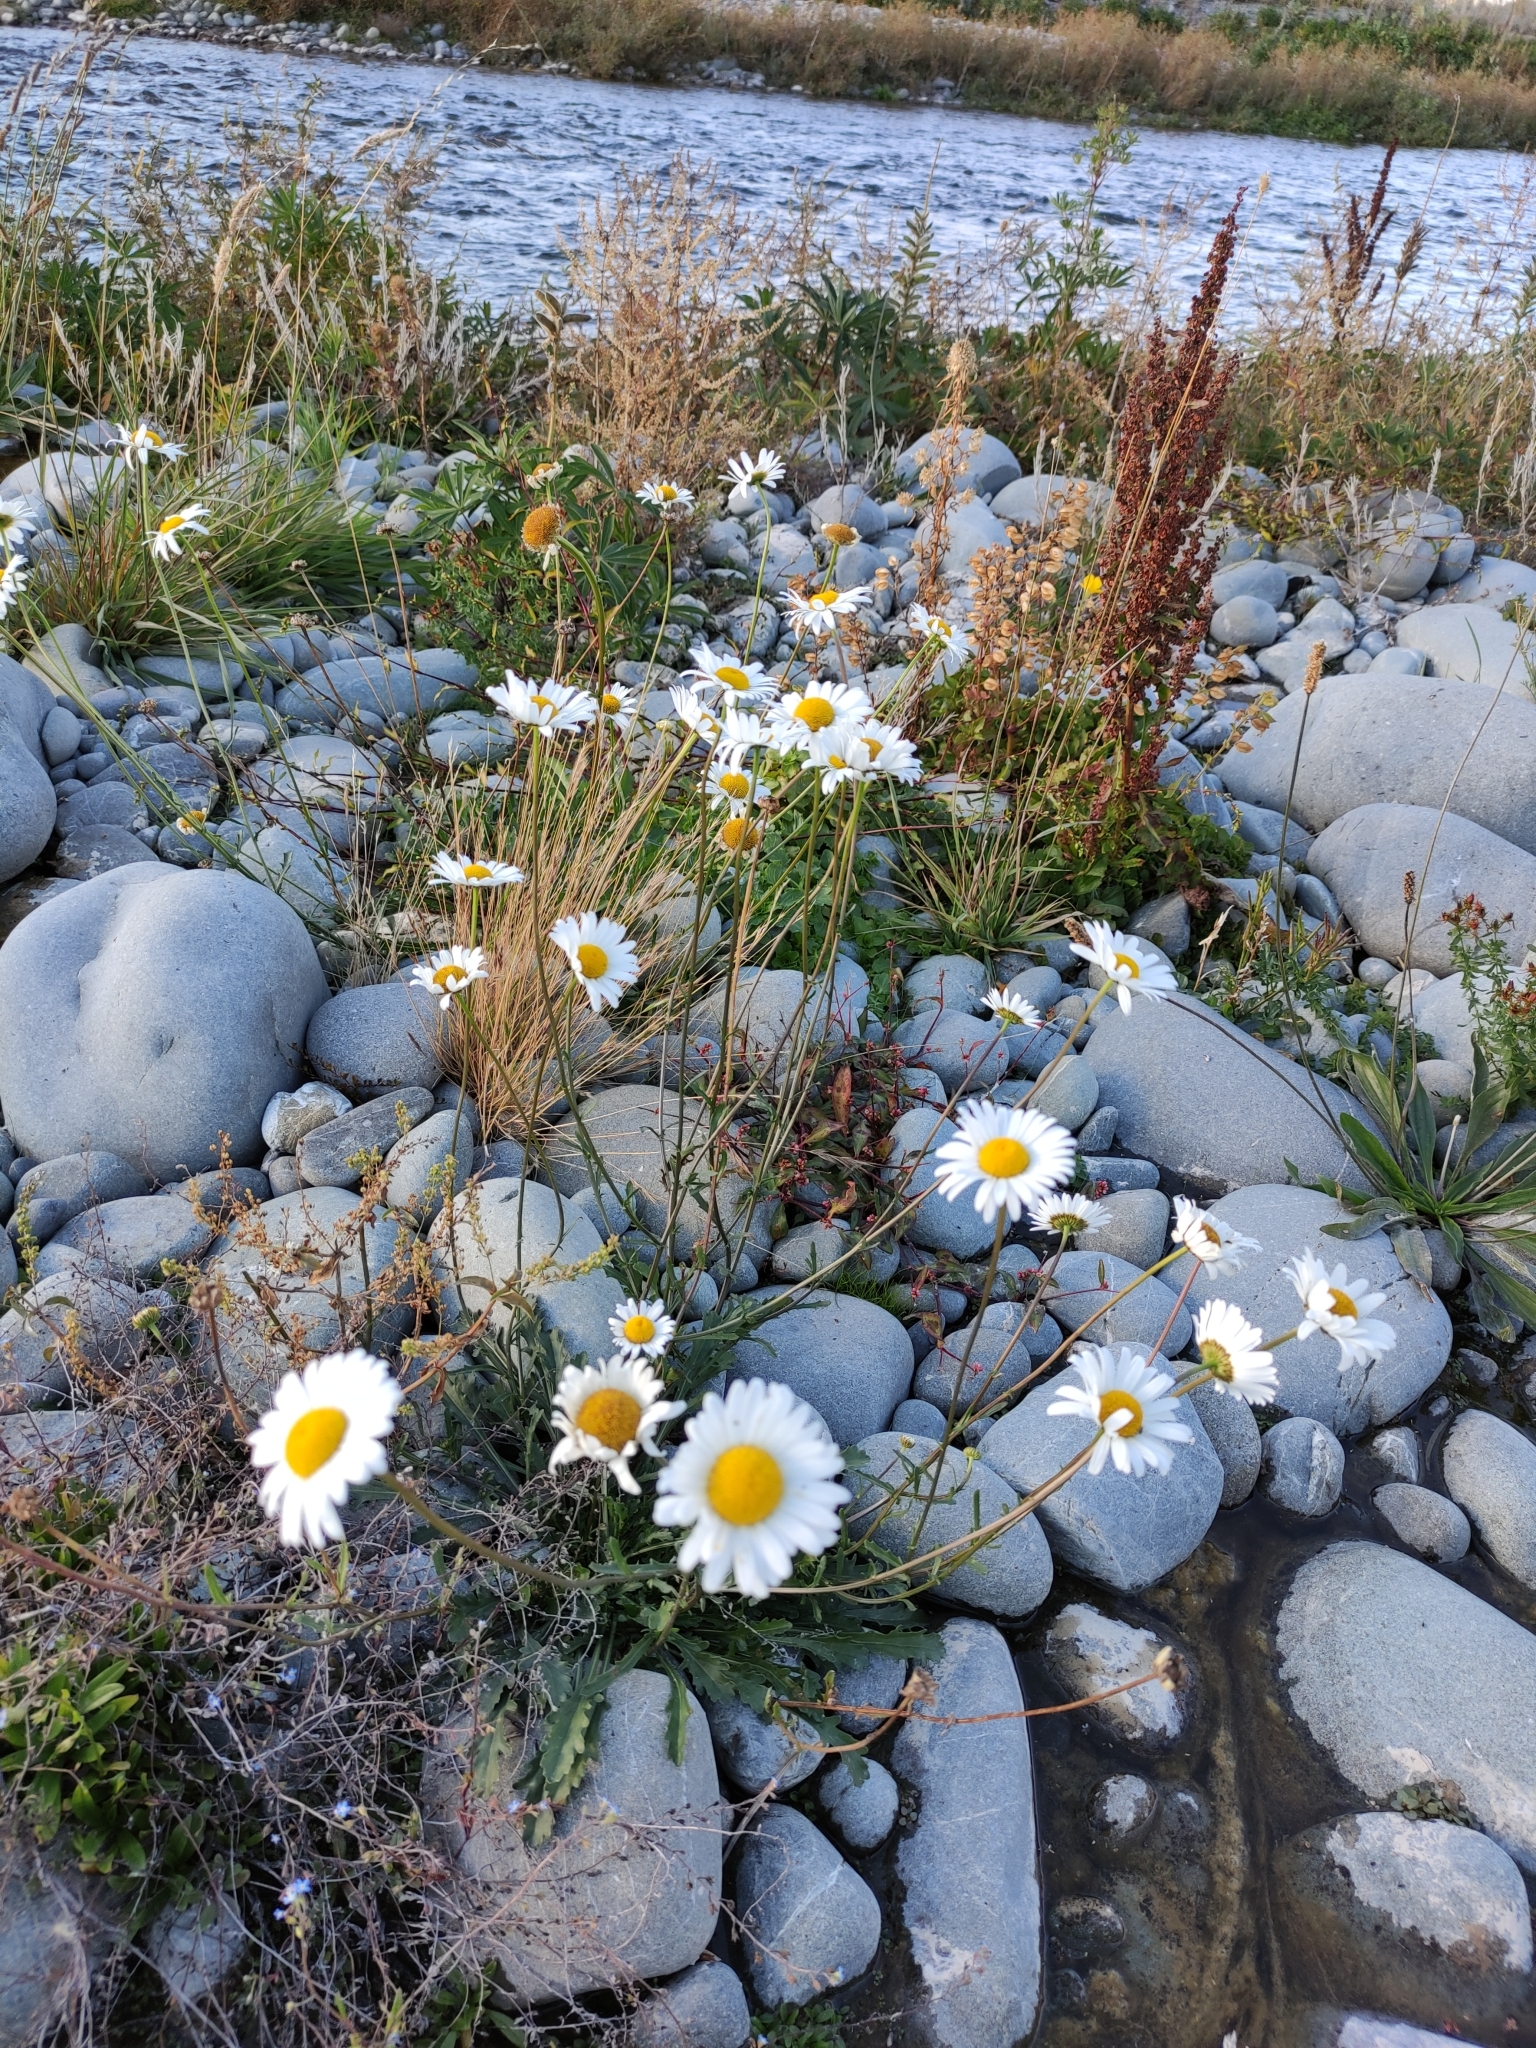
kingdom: Plantae
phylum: Tracheophyta
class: Magnoliopsida
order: Asterales
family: Asteraceae
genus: Leucanthemum
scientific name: Leucanthemum vulgare
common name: Oxeye daisy
